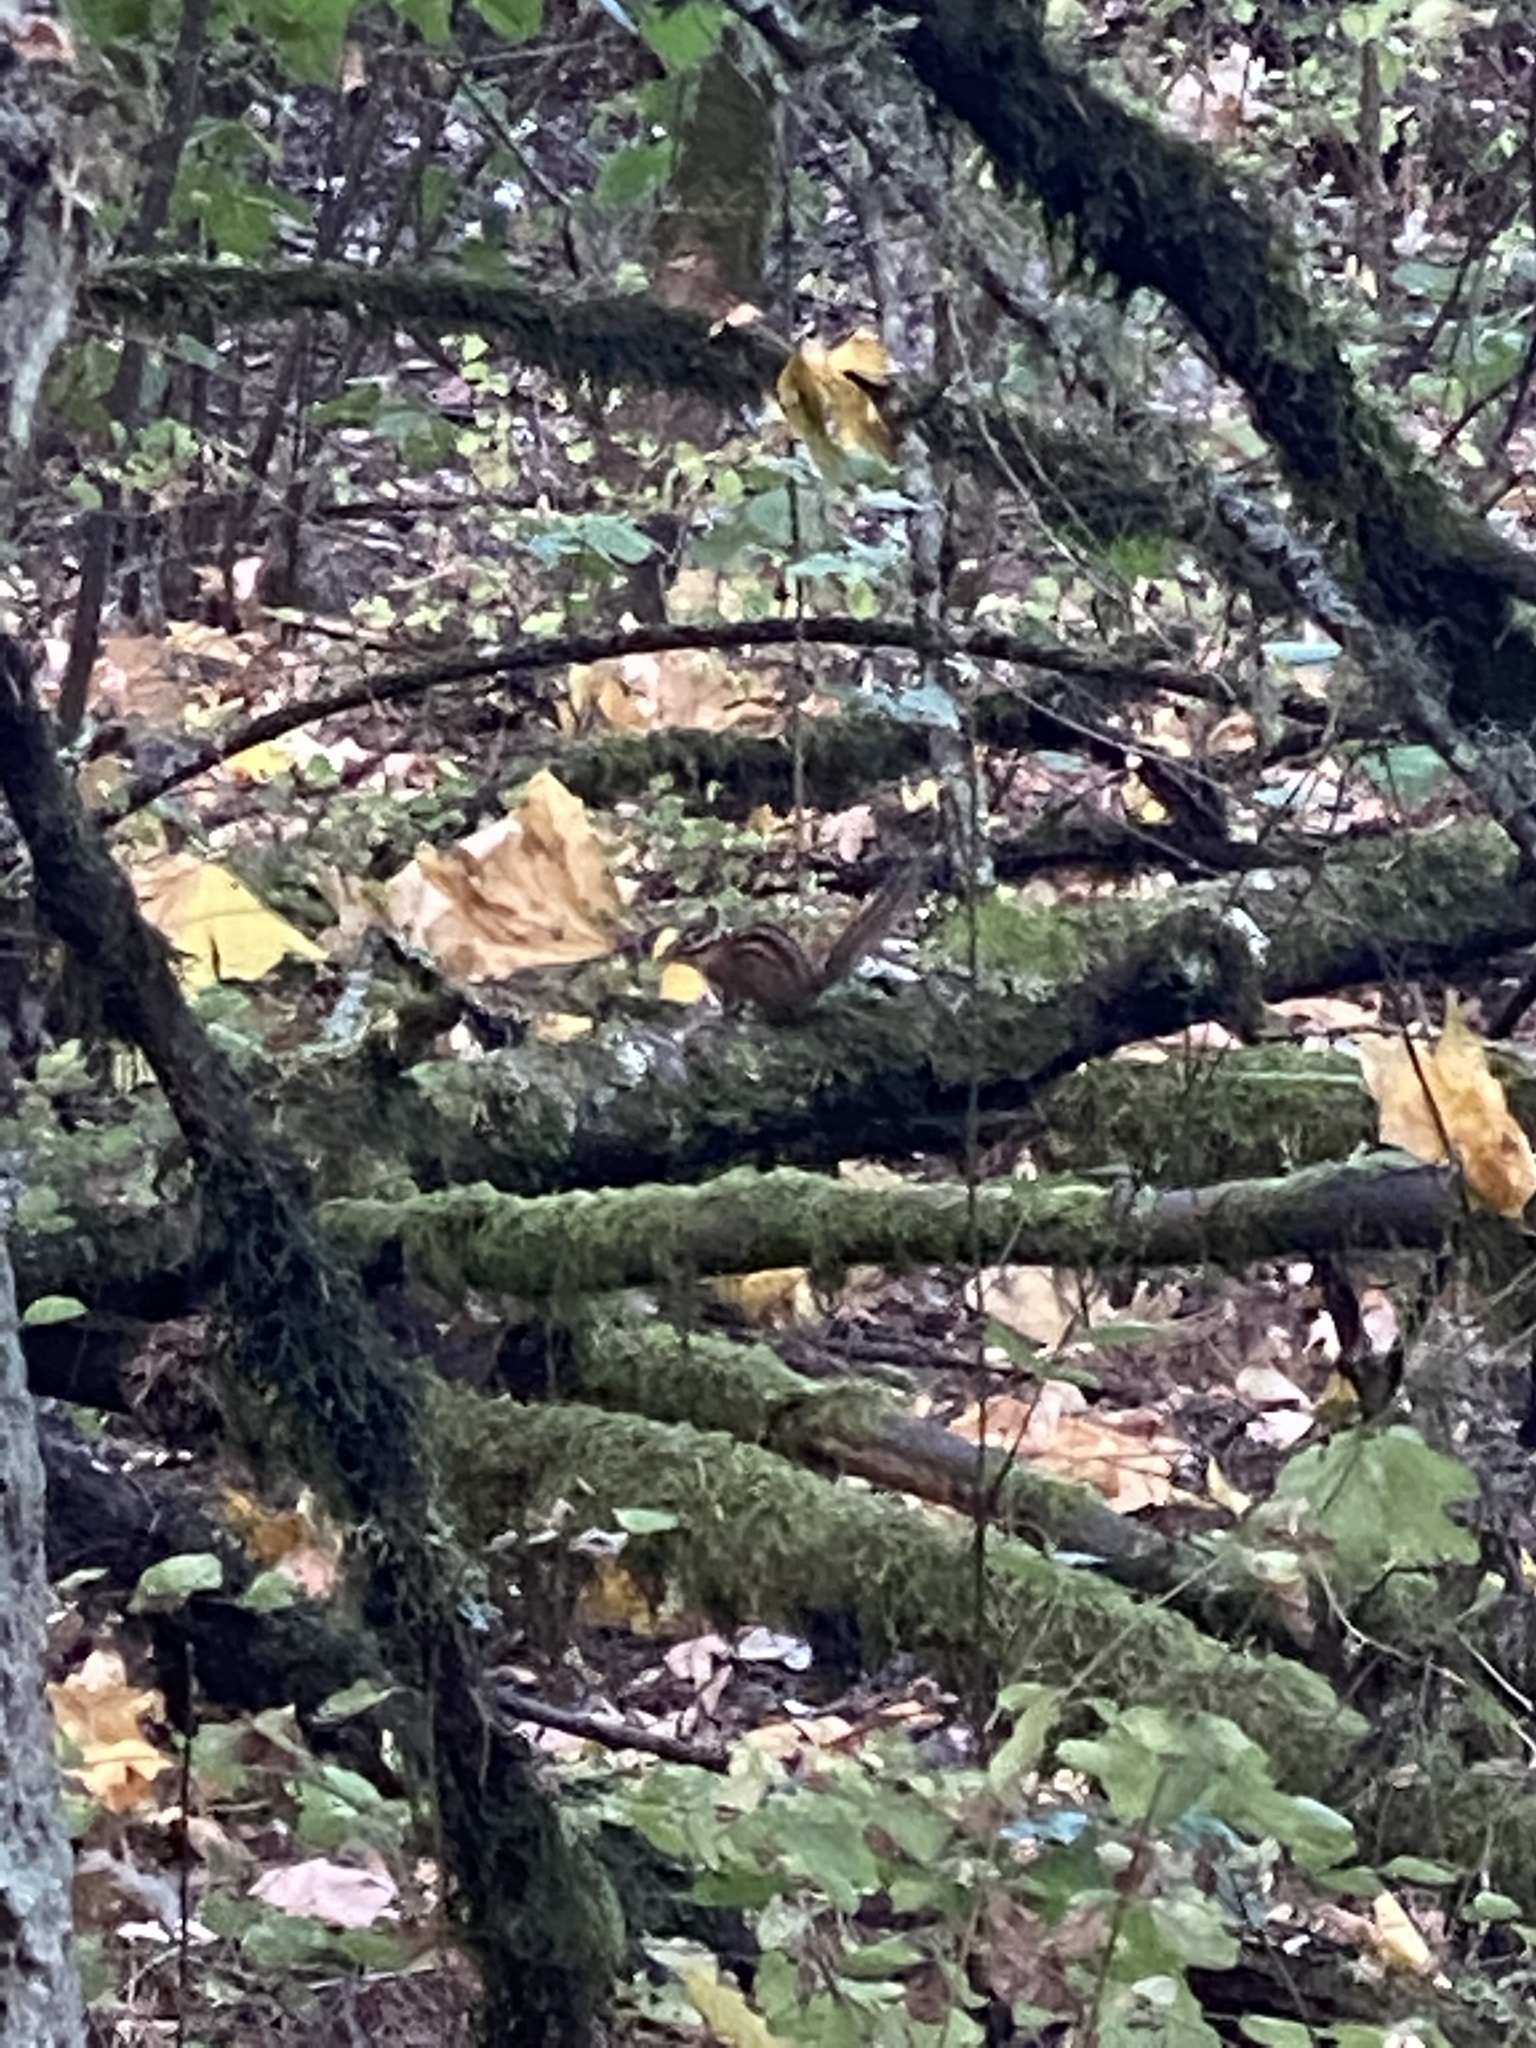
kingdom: Animalia
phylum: Chordata
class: Mammalia
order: Rodentia
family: Sciuridae
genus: Tamias
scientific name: Tamias townsendii
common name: Townsend's chipmunk
